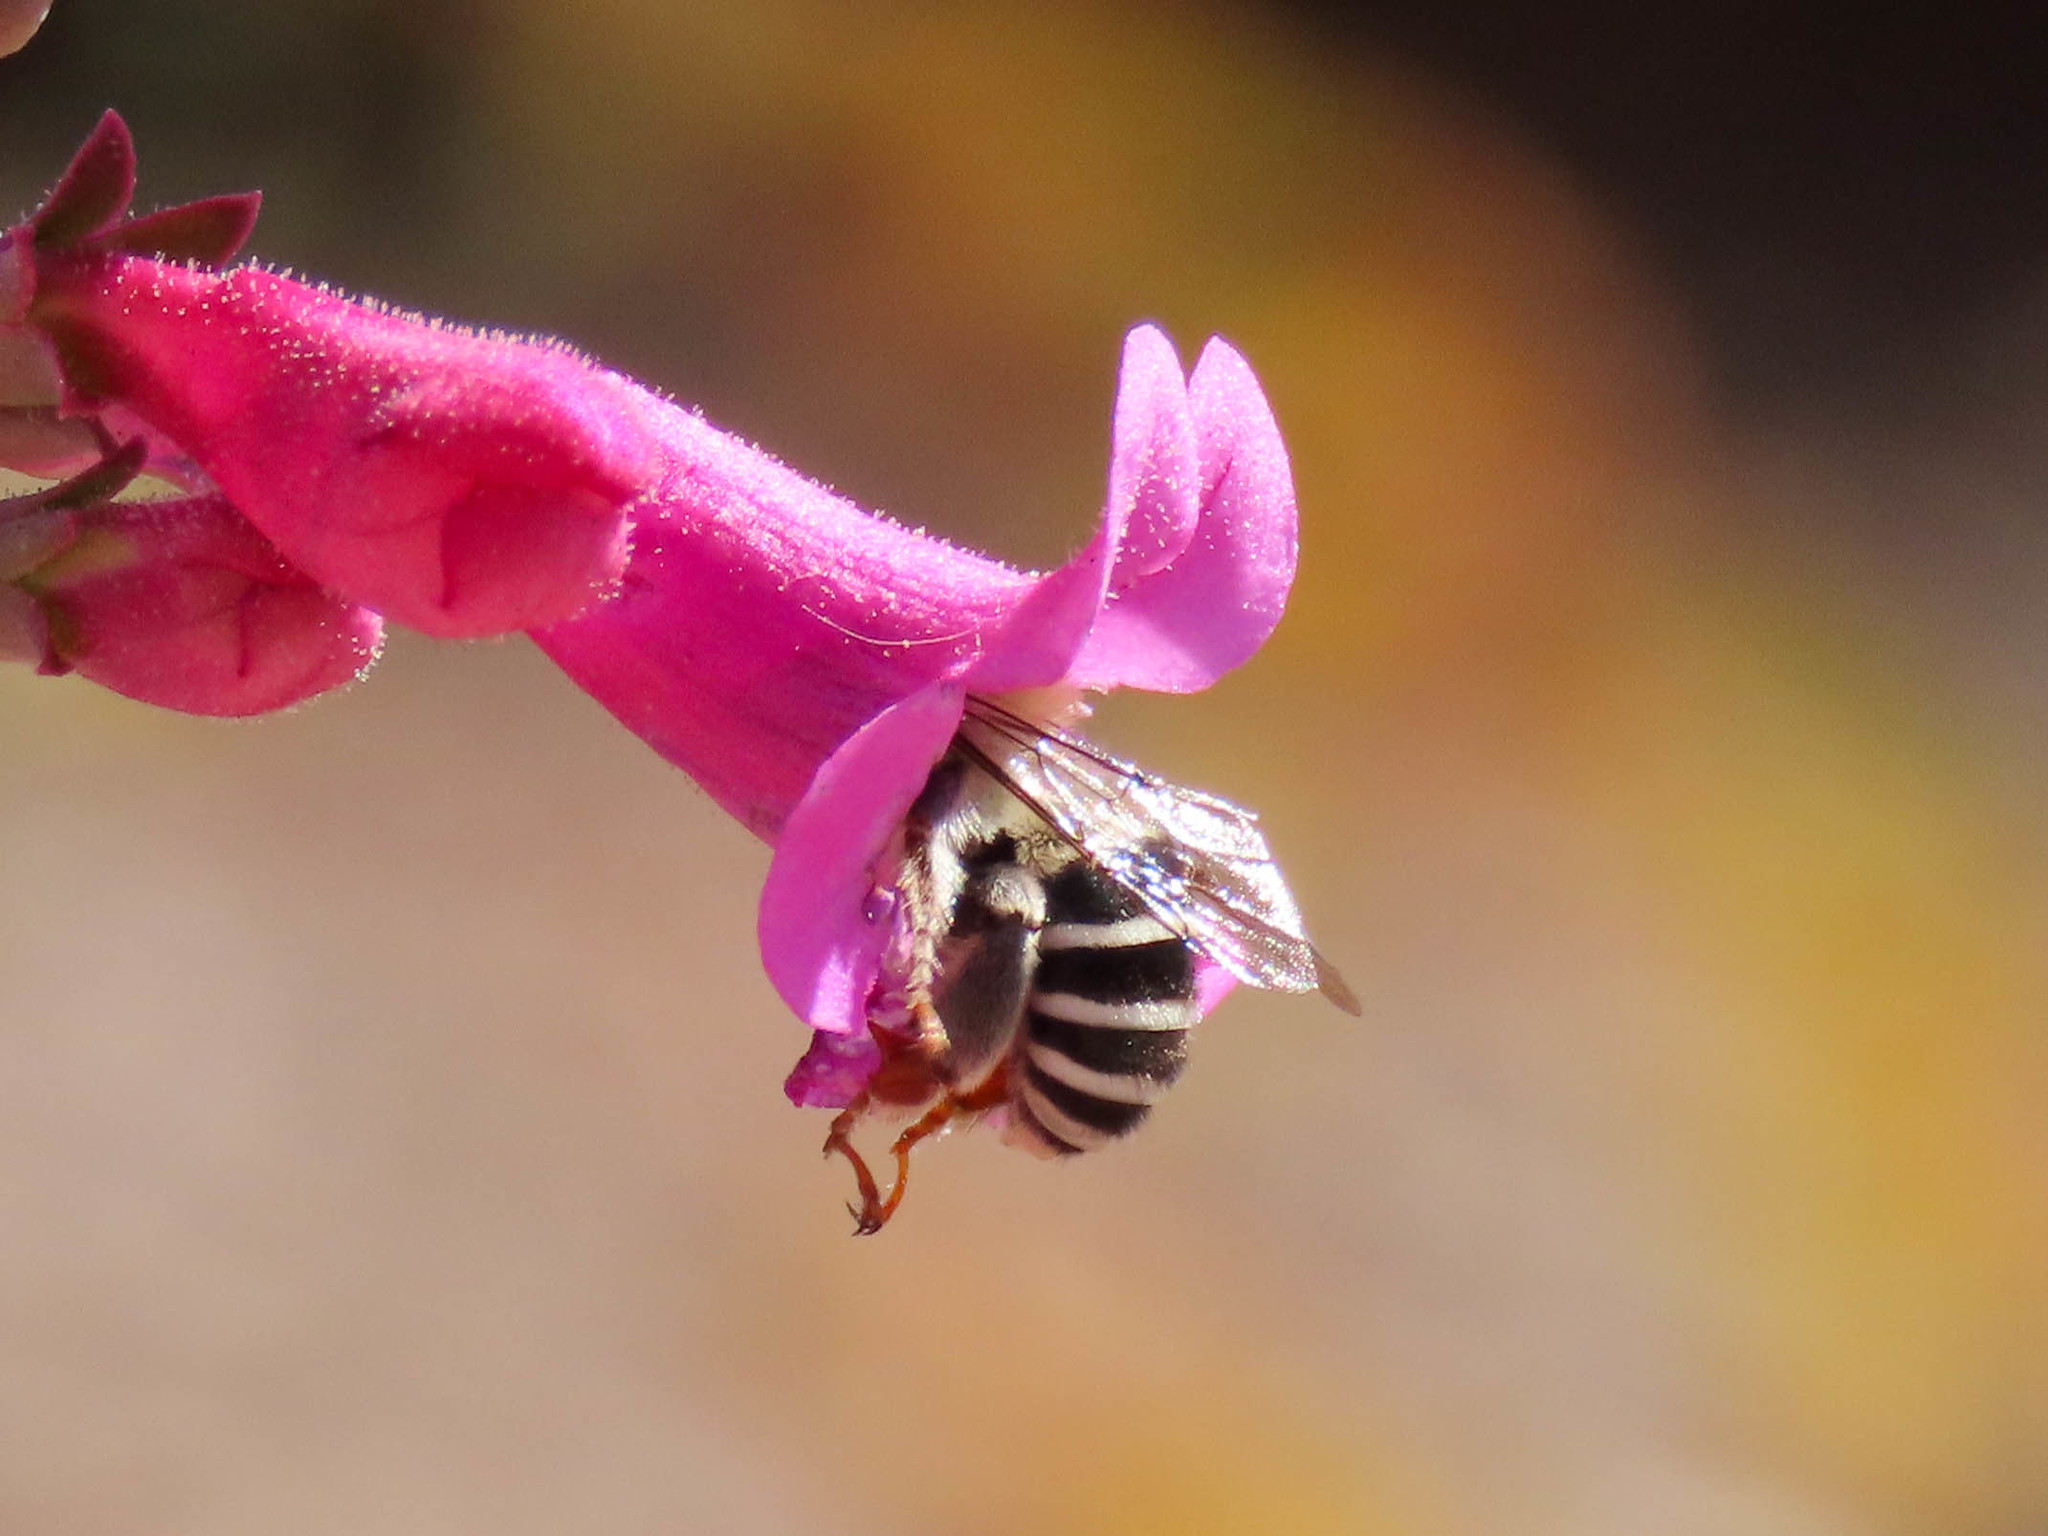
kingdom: Animalia
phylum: Arthropoda
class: Insecta
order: Hymenoptera
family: Apidae
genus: Anthophora
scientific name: Anthophora californica
